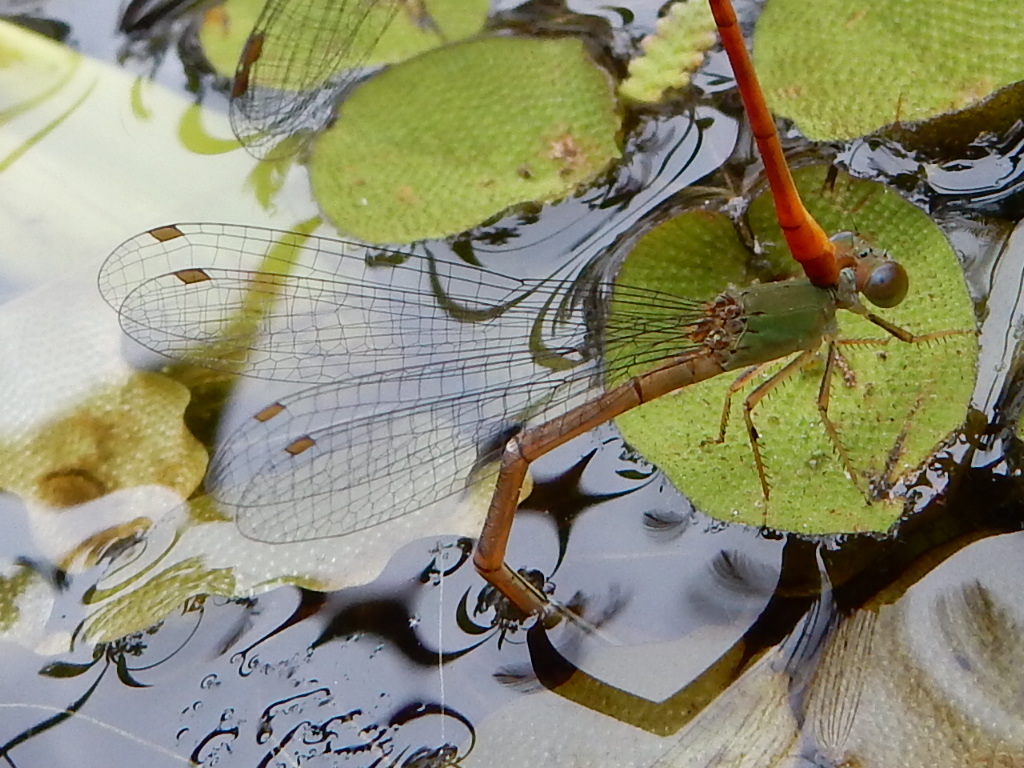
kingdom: Animalia
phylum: Arthropoda
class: Insecta
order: Odonata
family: Coenagrionidae
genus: Ceriagrion
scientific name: Ceriagrion aeruginosum
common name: Redtail
